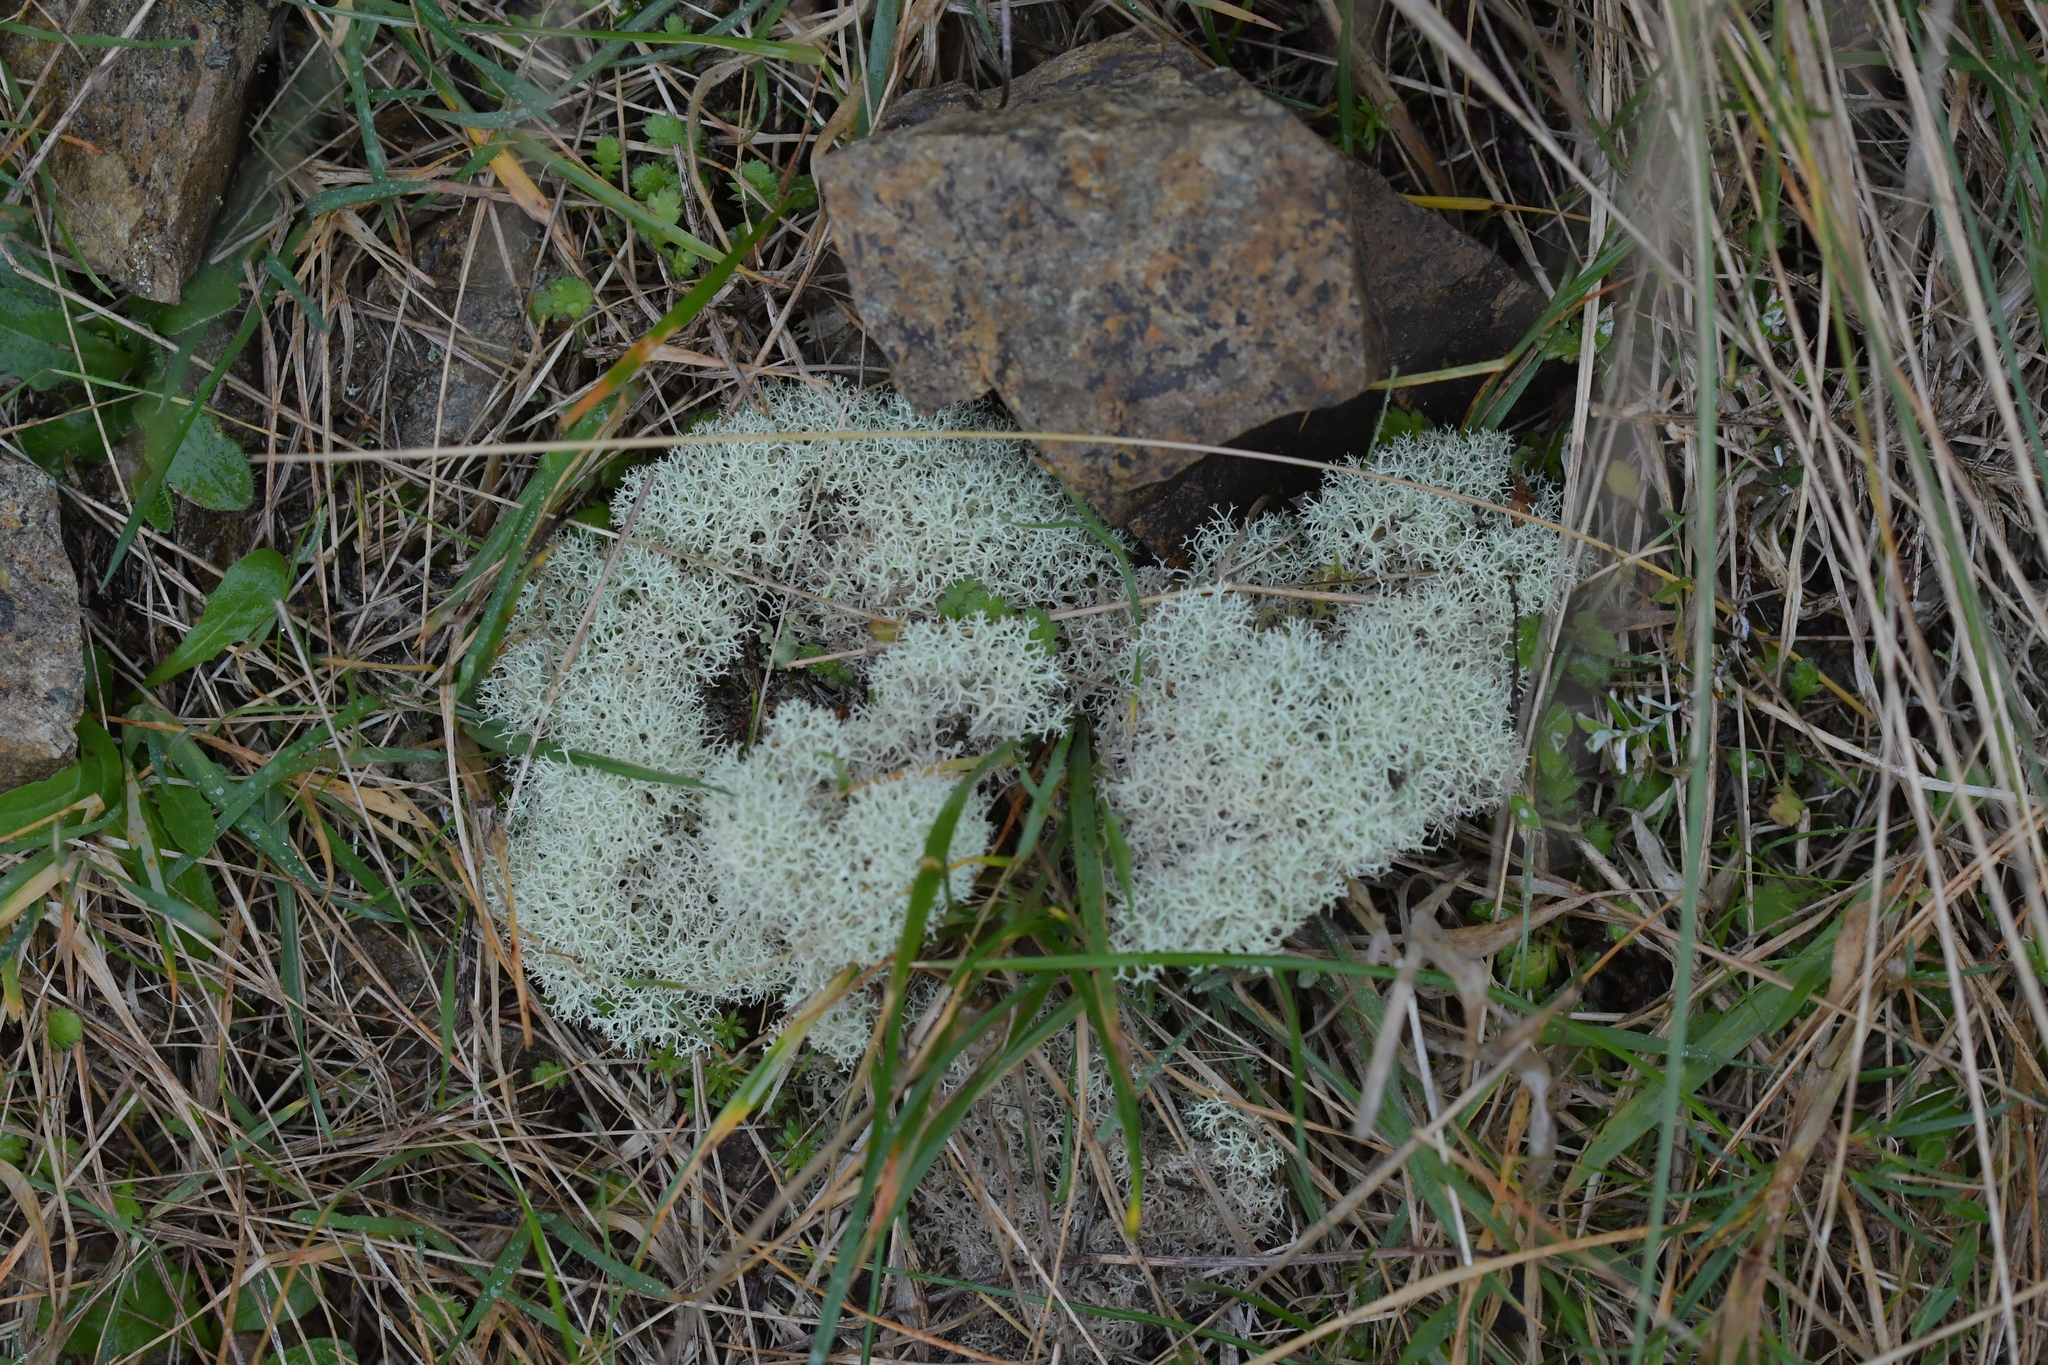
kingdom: Fungi
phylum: Ascomycota
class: Lecanoromycetes
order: Lecanorales
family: Cladoniaceae
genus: Cladonia
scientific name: Cladonia confusa
